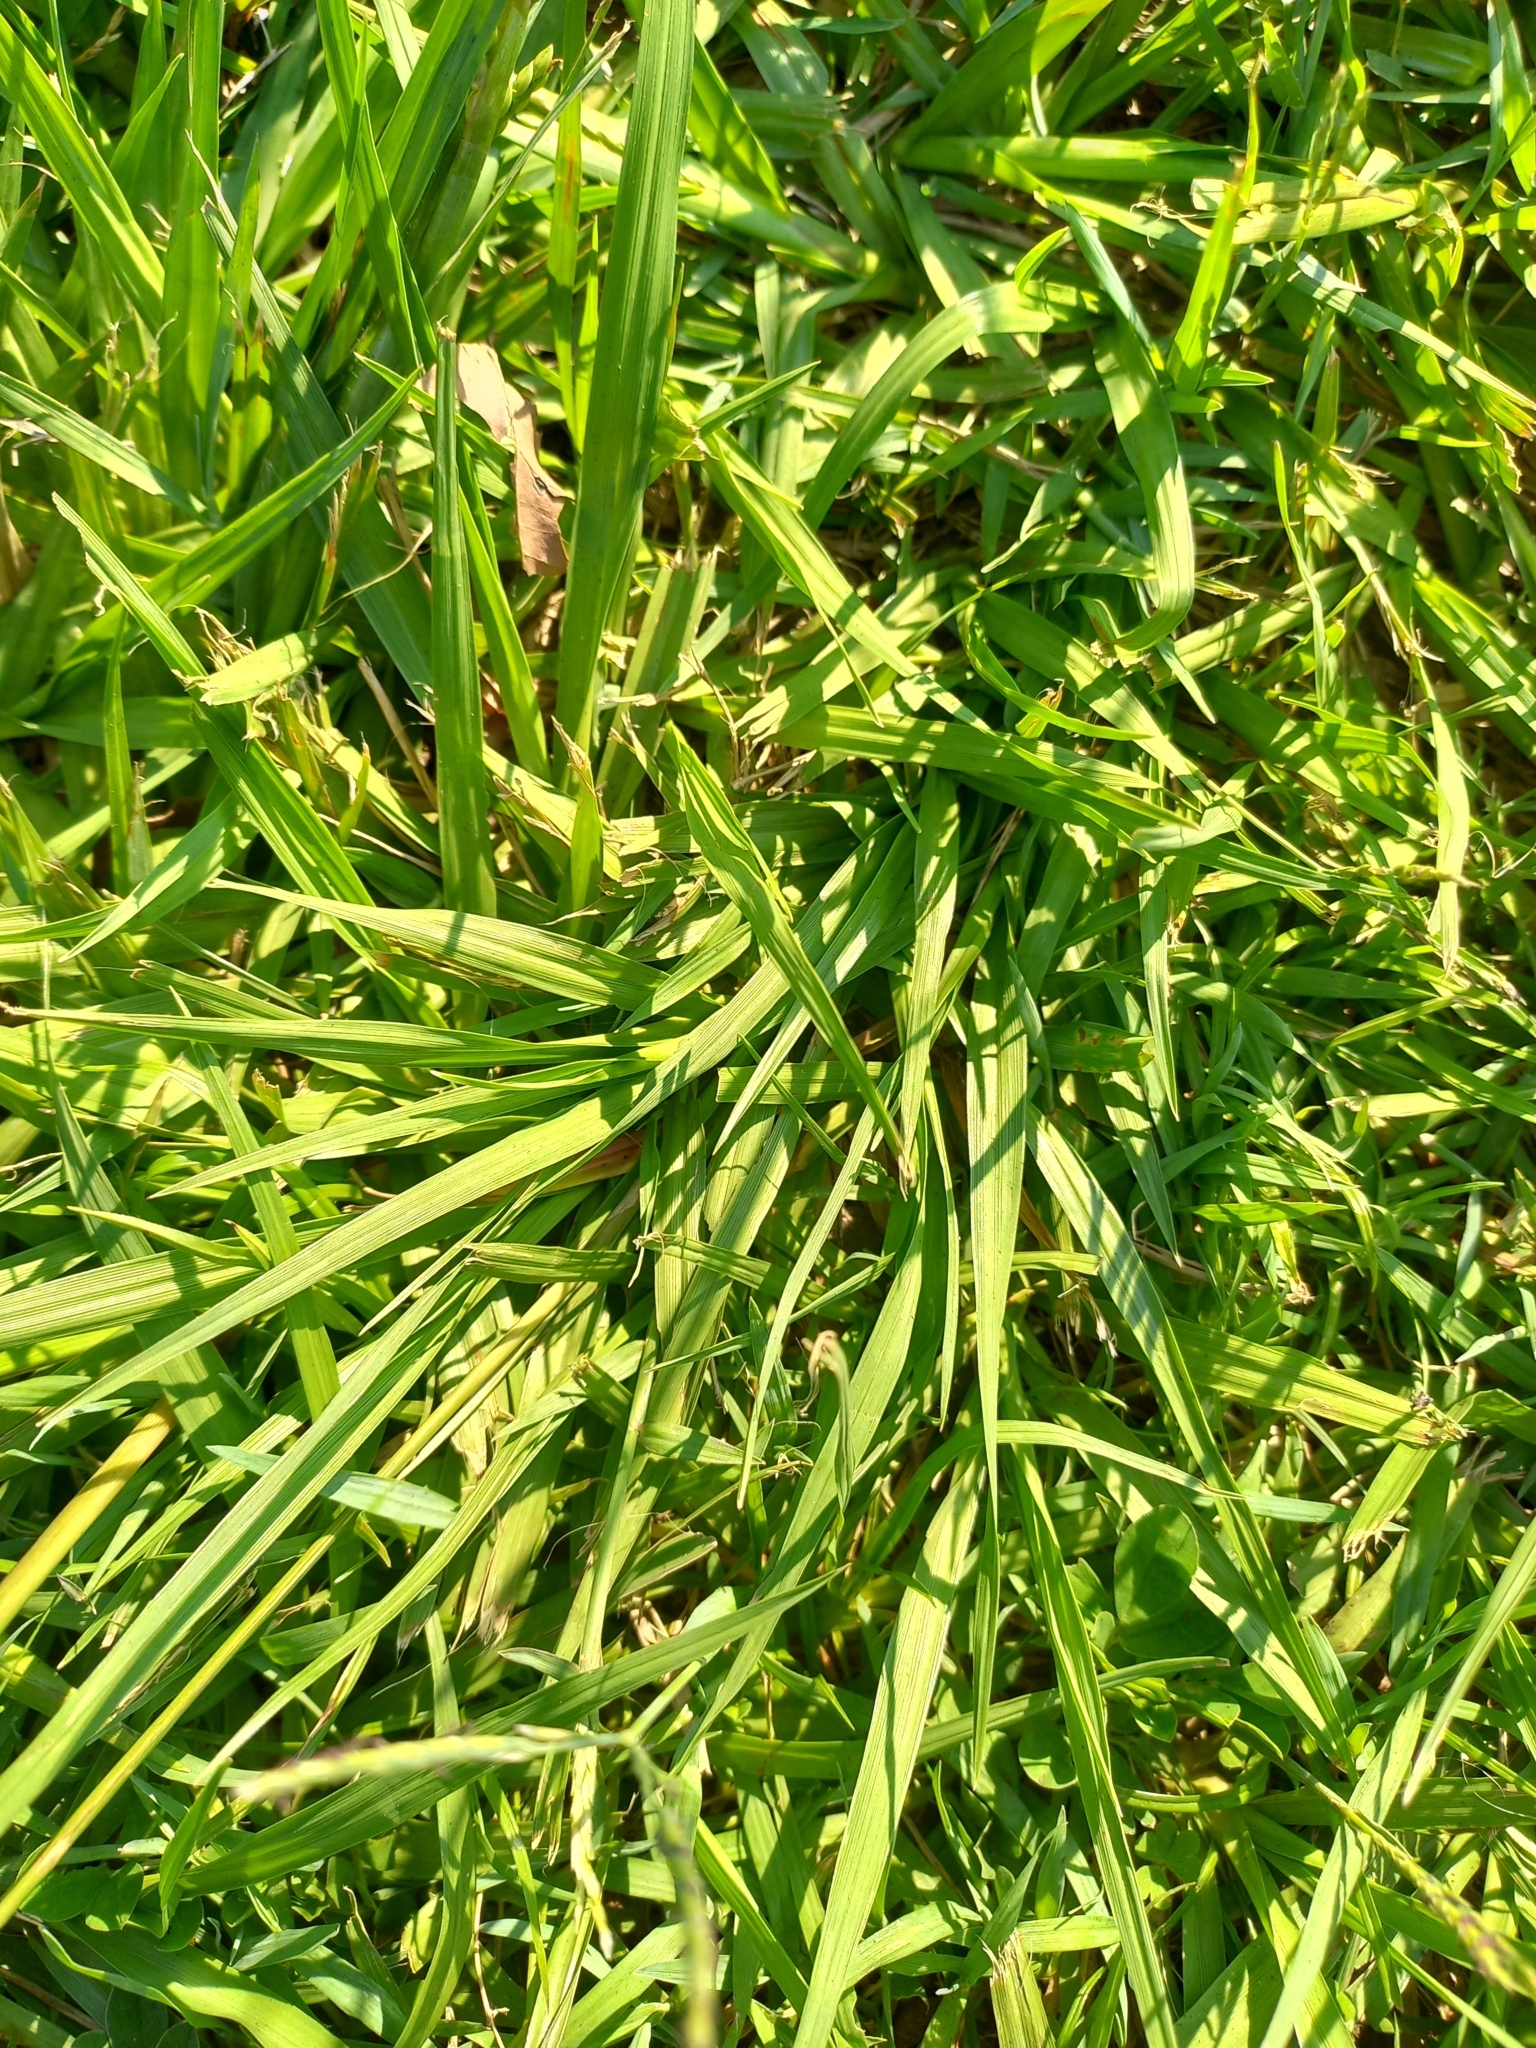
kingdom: Plantae
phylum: Tracheophyta
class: Liliopsida
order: Poales
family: Poaceae
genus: Paspalum
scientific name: Paspalum notatum
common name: Bahiagrass
